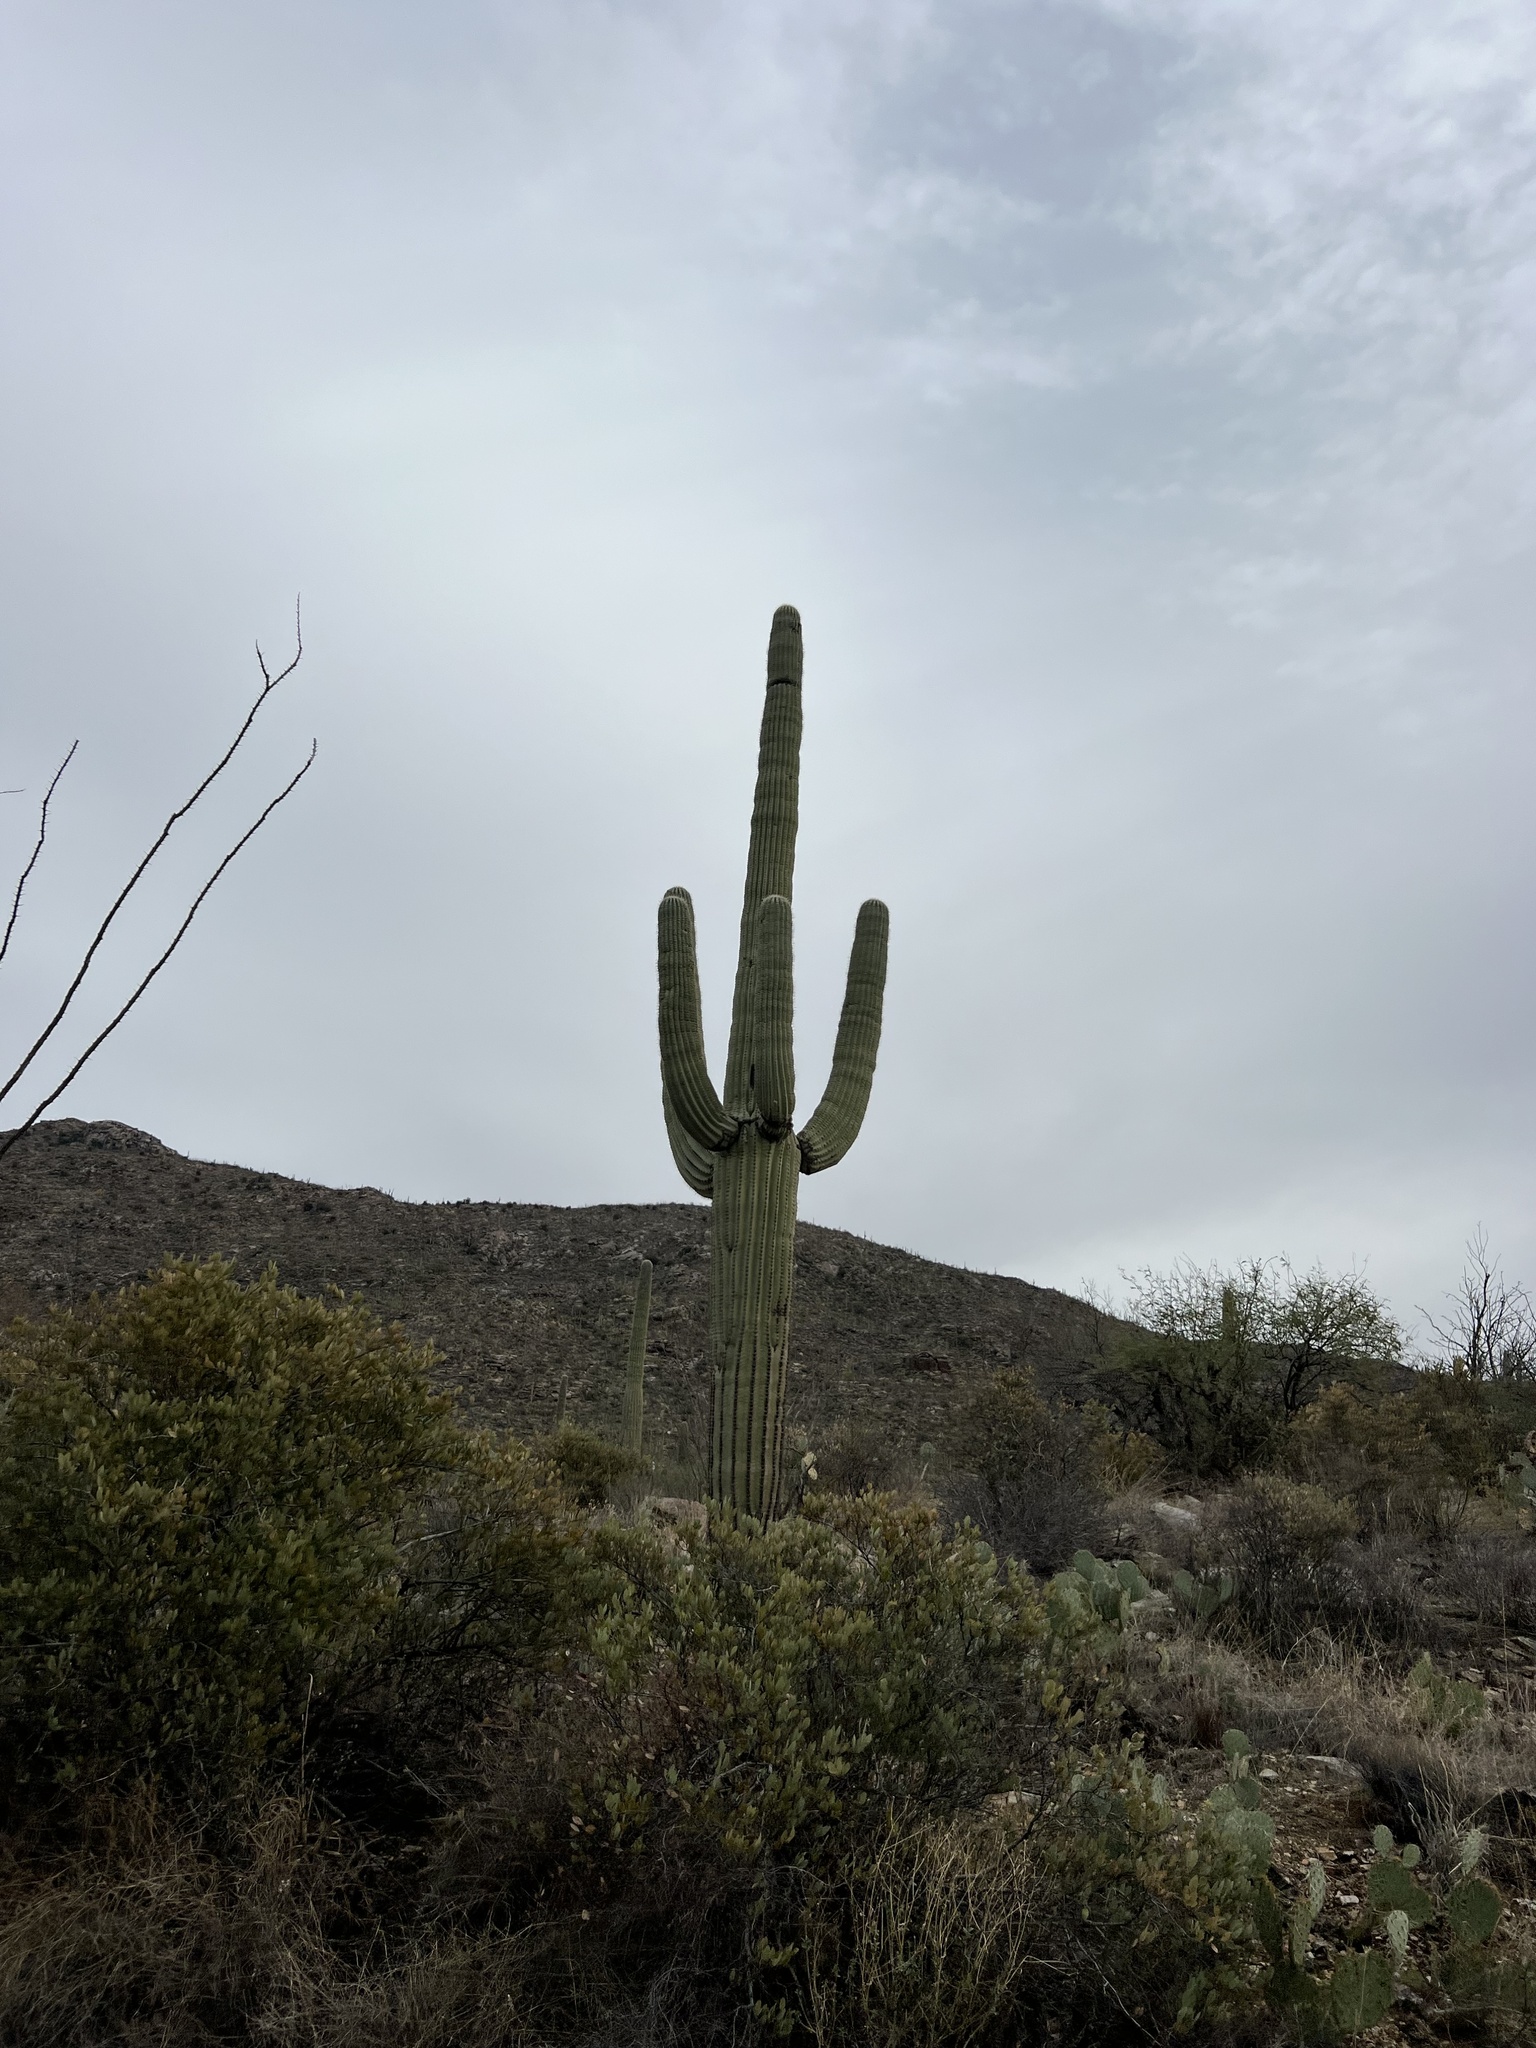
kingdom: Plantae
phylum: Tracheophyta
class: Magnoliopsida
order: Caryophyllales
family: Cactaceae
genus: Carnegiea
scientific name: Carnegiea gigantea
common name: Saguaro
